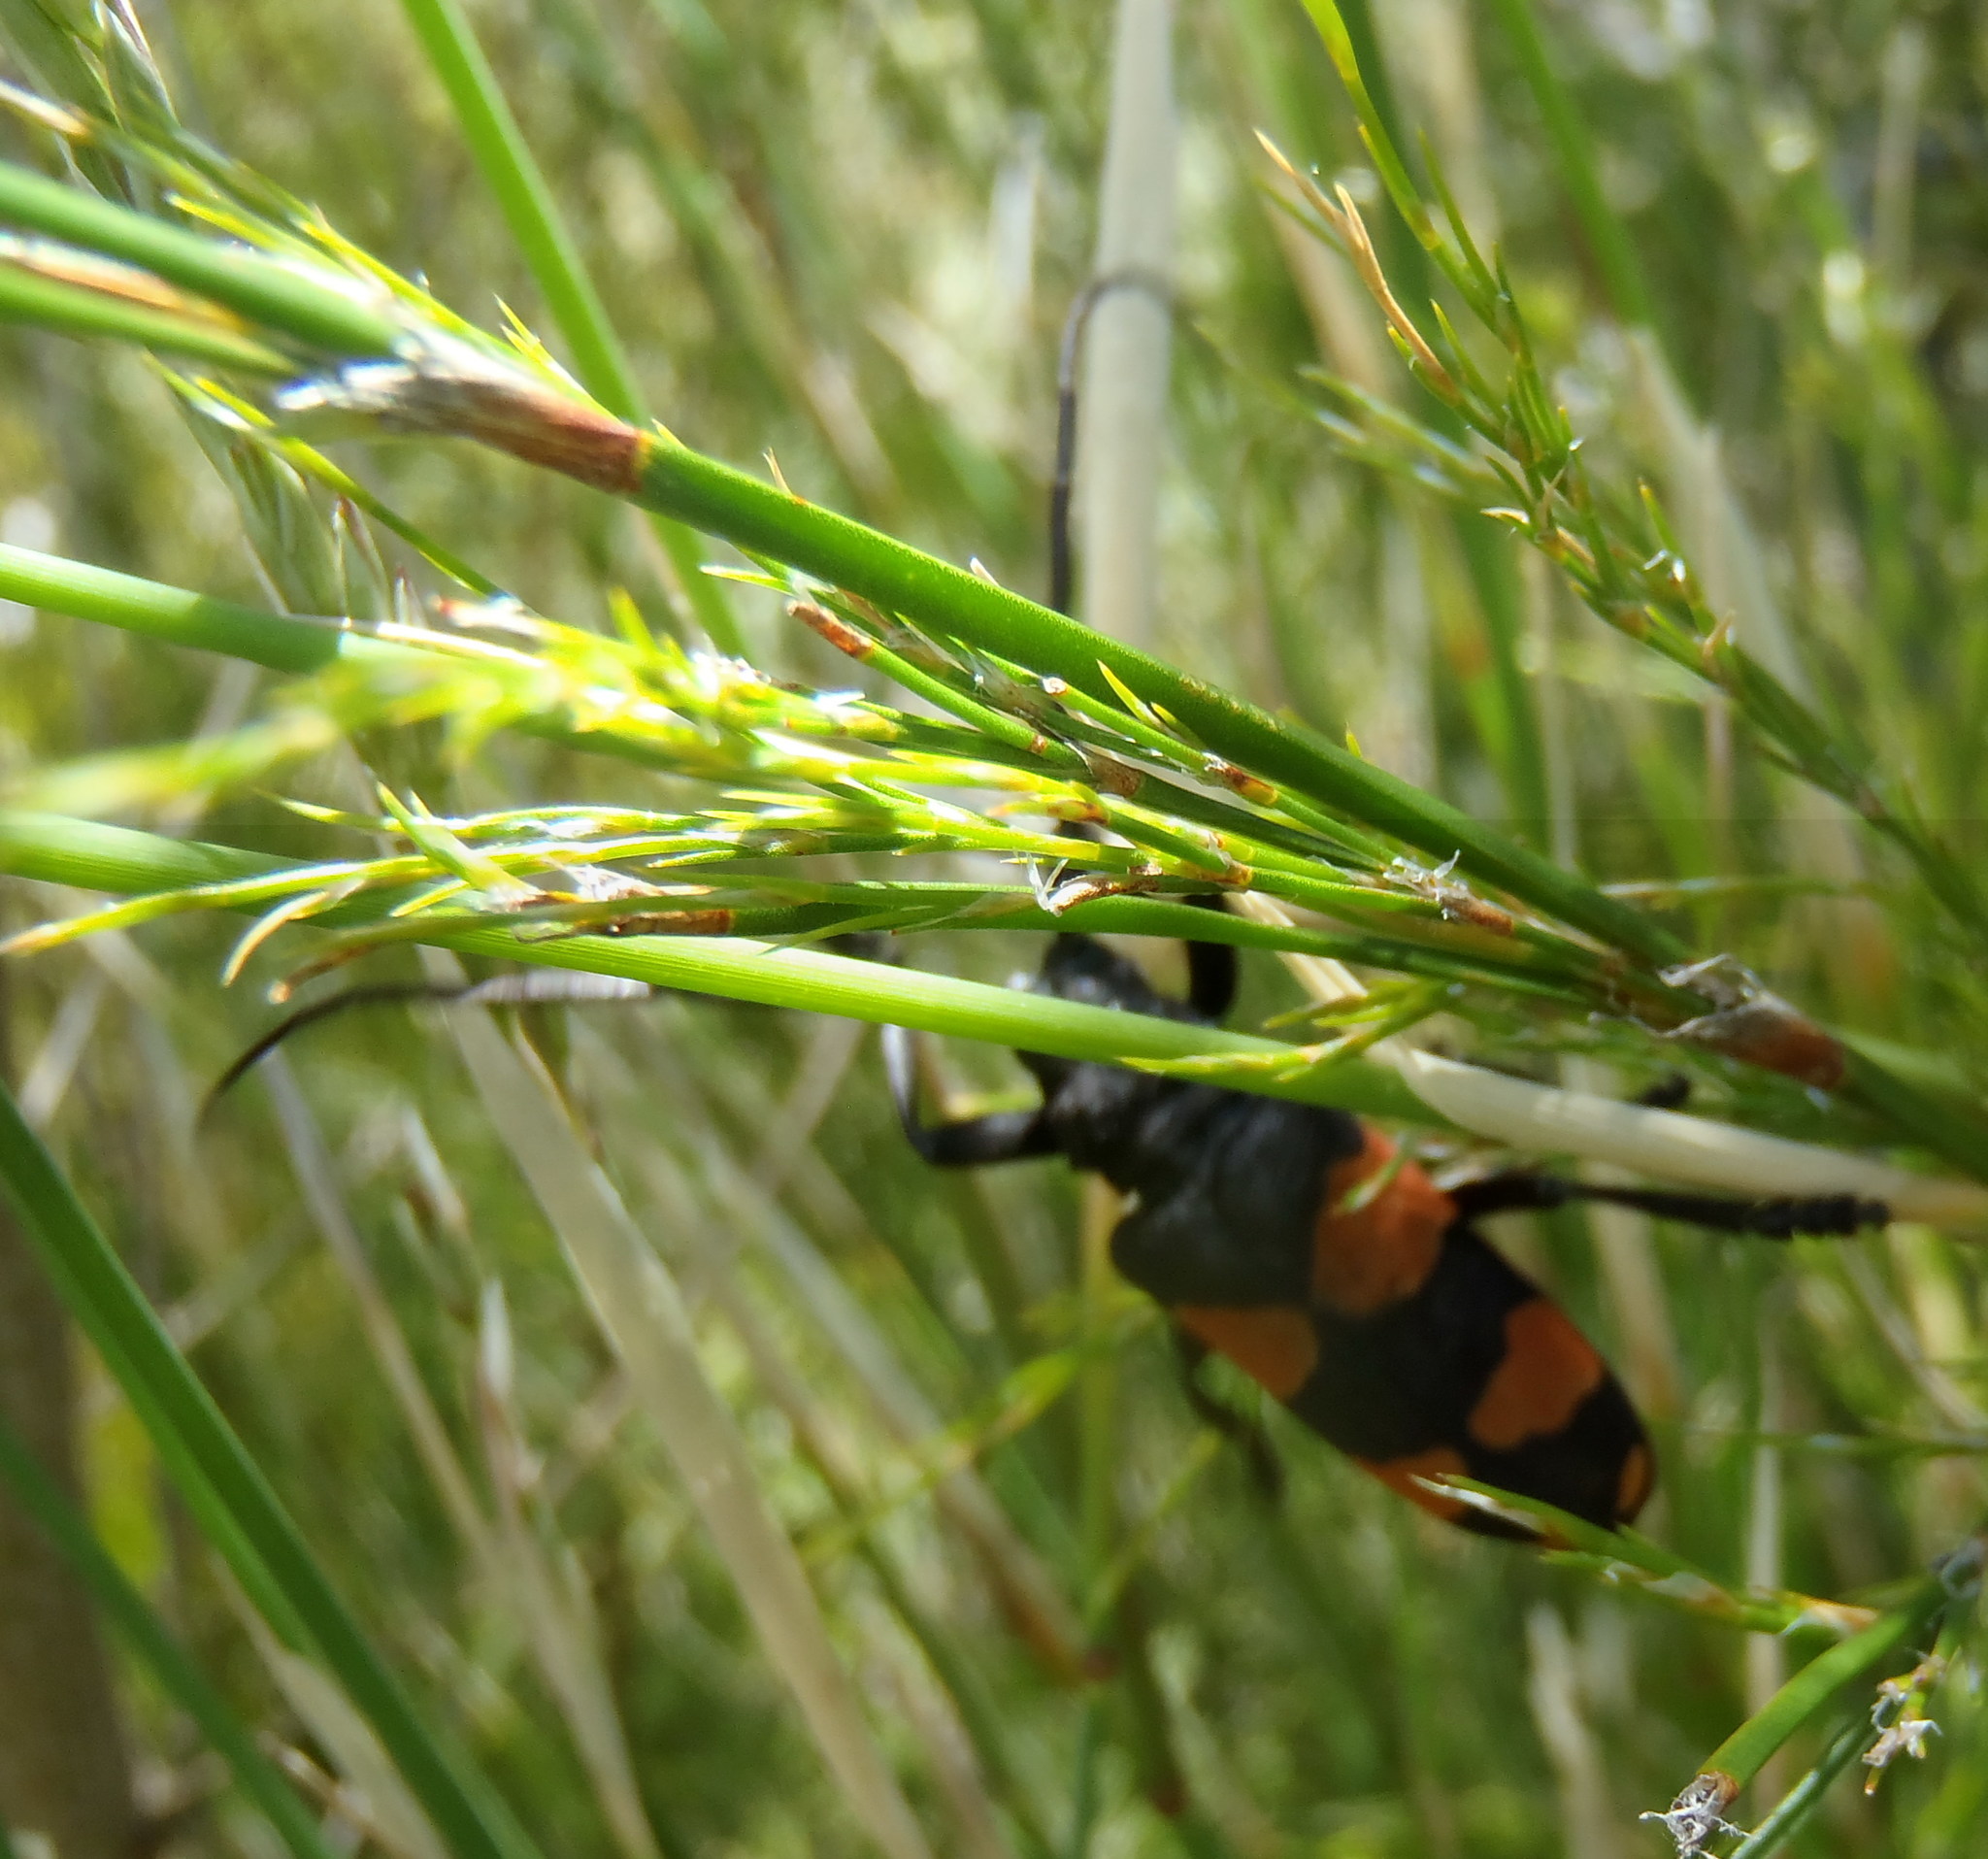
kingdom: Animalia
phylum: Arthropoda
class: Insecta
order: Coleoptera
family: Cerambycidae
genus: Ceroplesis
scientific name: Ceroplesis aethiops
